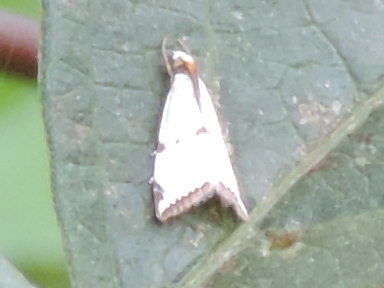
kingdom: Animalia
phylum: Arthropoda
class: Insecta
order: Lepidoptera
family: Crambidae
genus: Argyria
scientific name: Argyria lacteella
